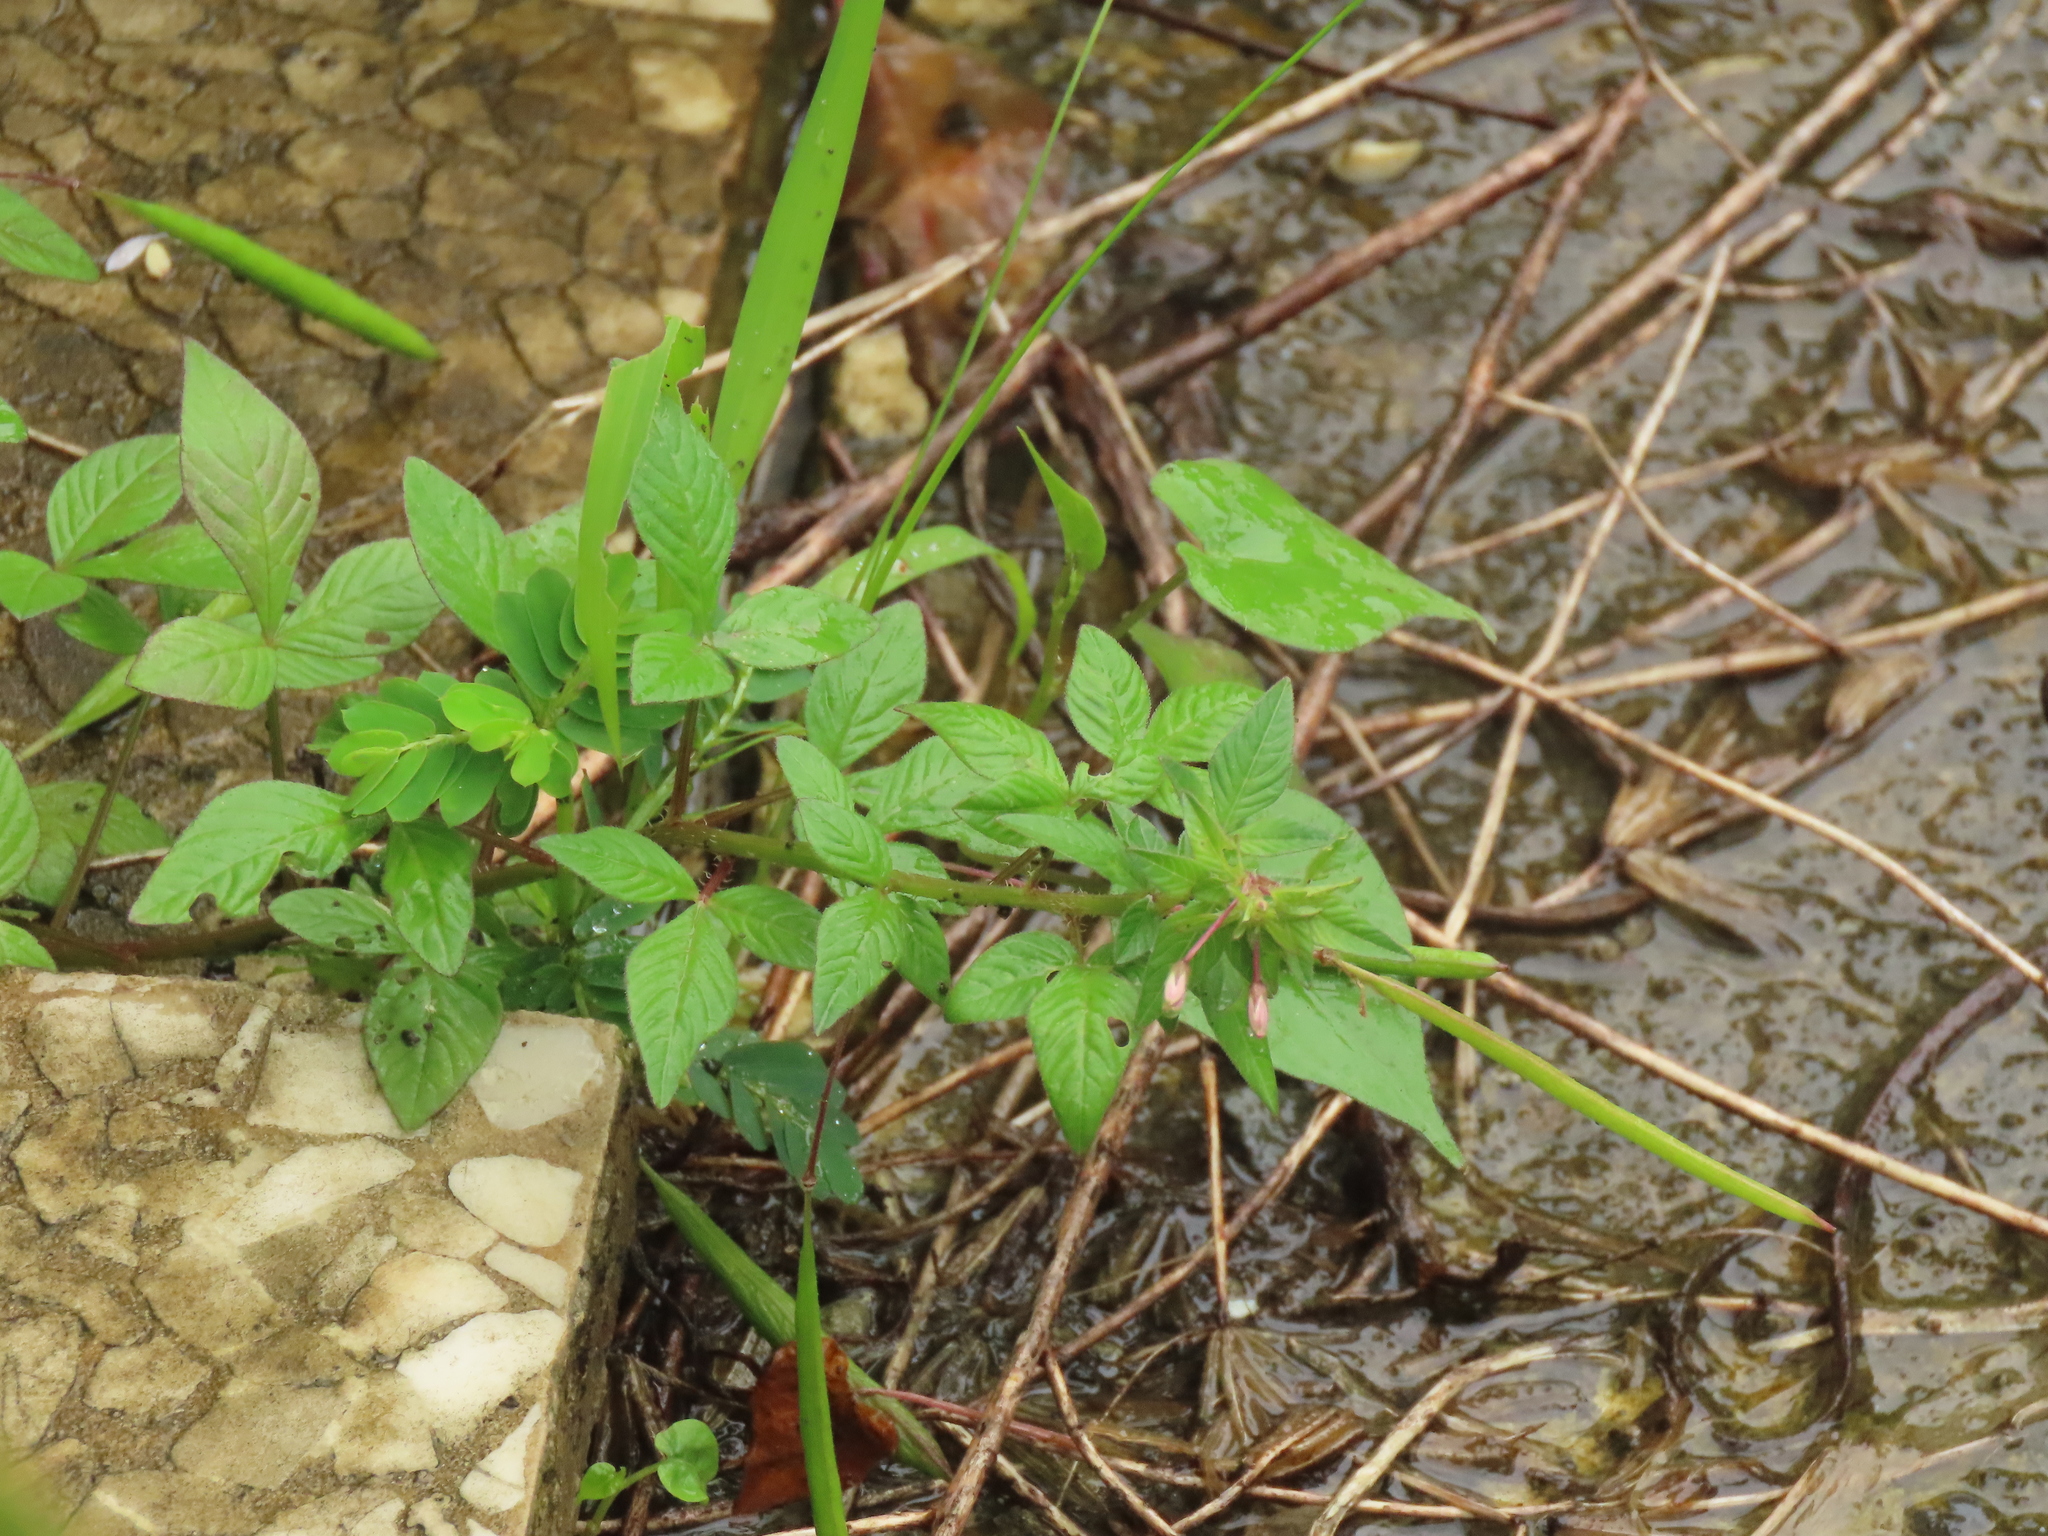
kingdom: Plantae
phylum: Tracheophyta
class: Magnoliopsida
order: Brassicales
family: Cleomaceae
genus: Sieruela
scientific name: Sieruela rutidosperma
